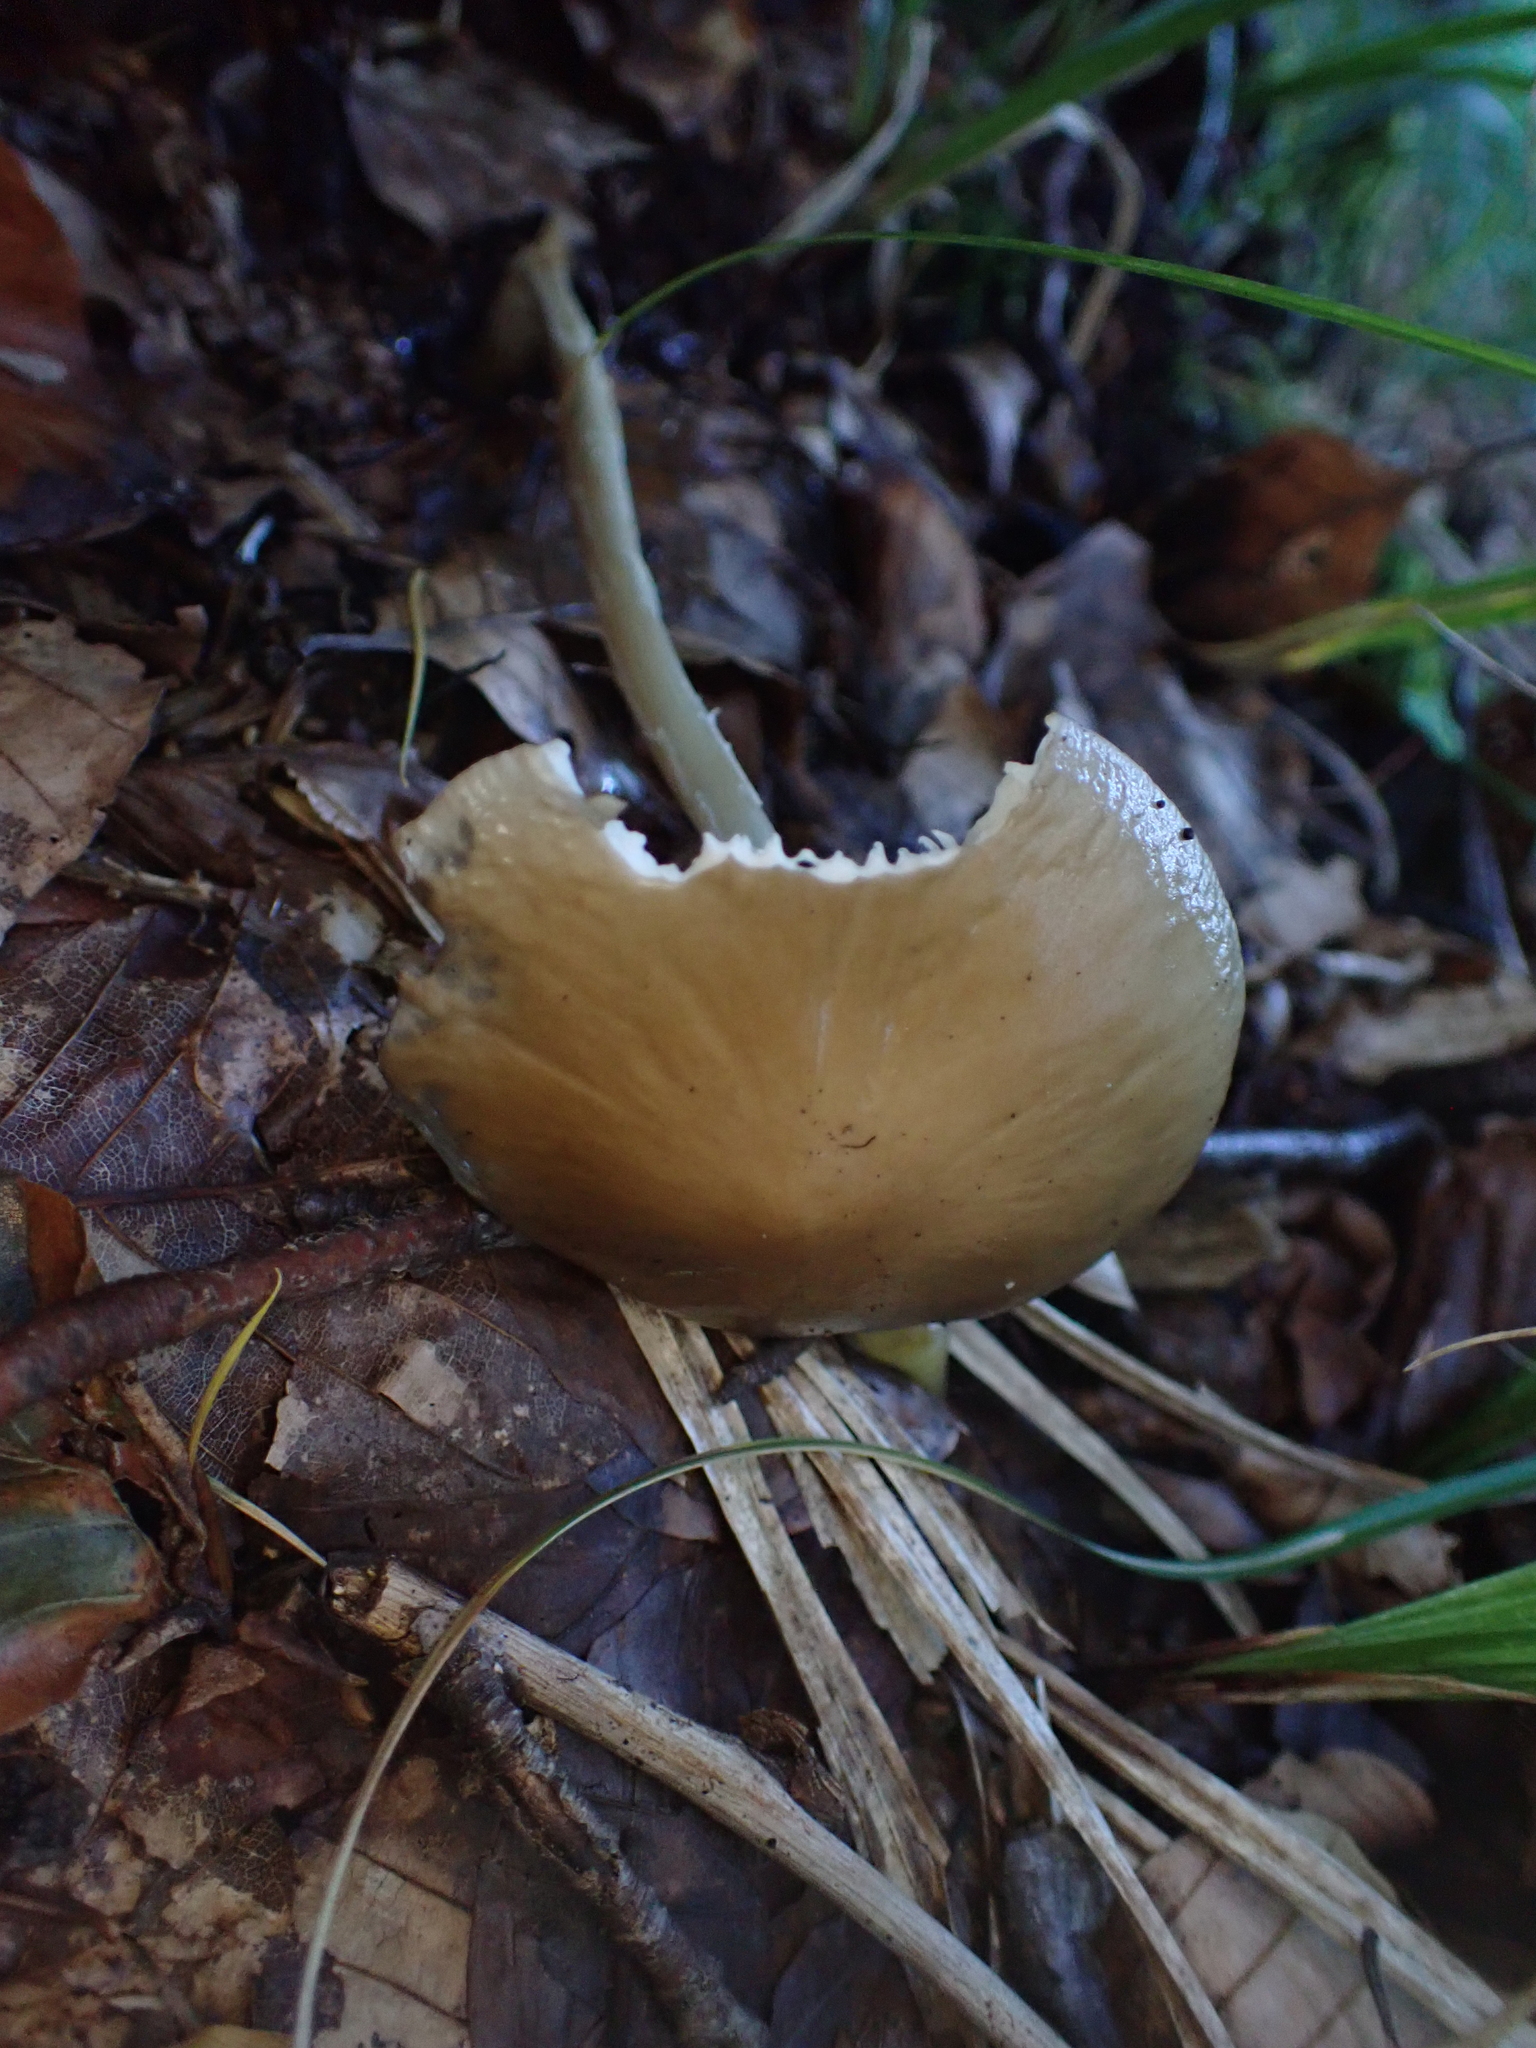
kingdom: Fungi
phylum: Basidiomycota
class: Agaricomycetes
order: Agaricales
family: Physalacriaceae
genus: Hymenopellis
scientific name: Hymenopellis radicata
